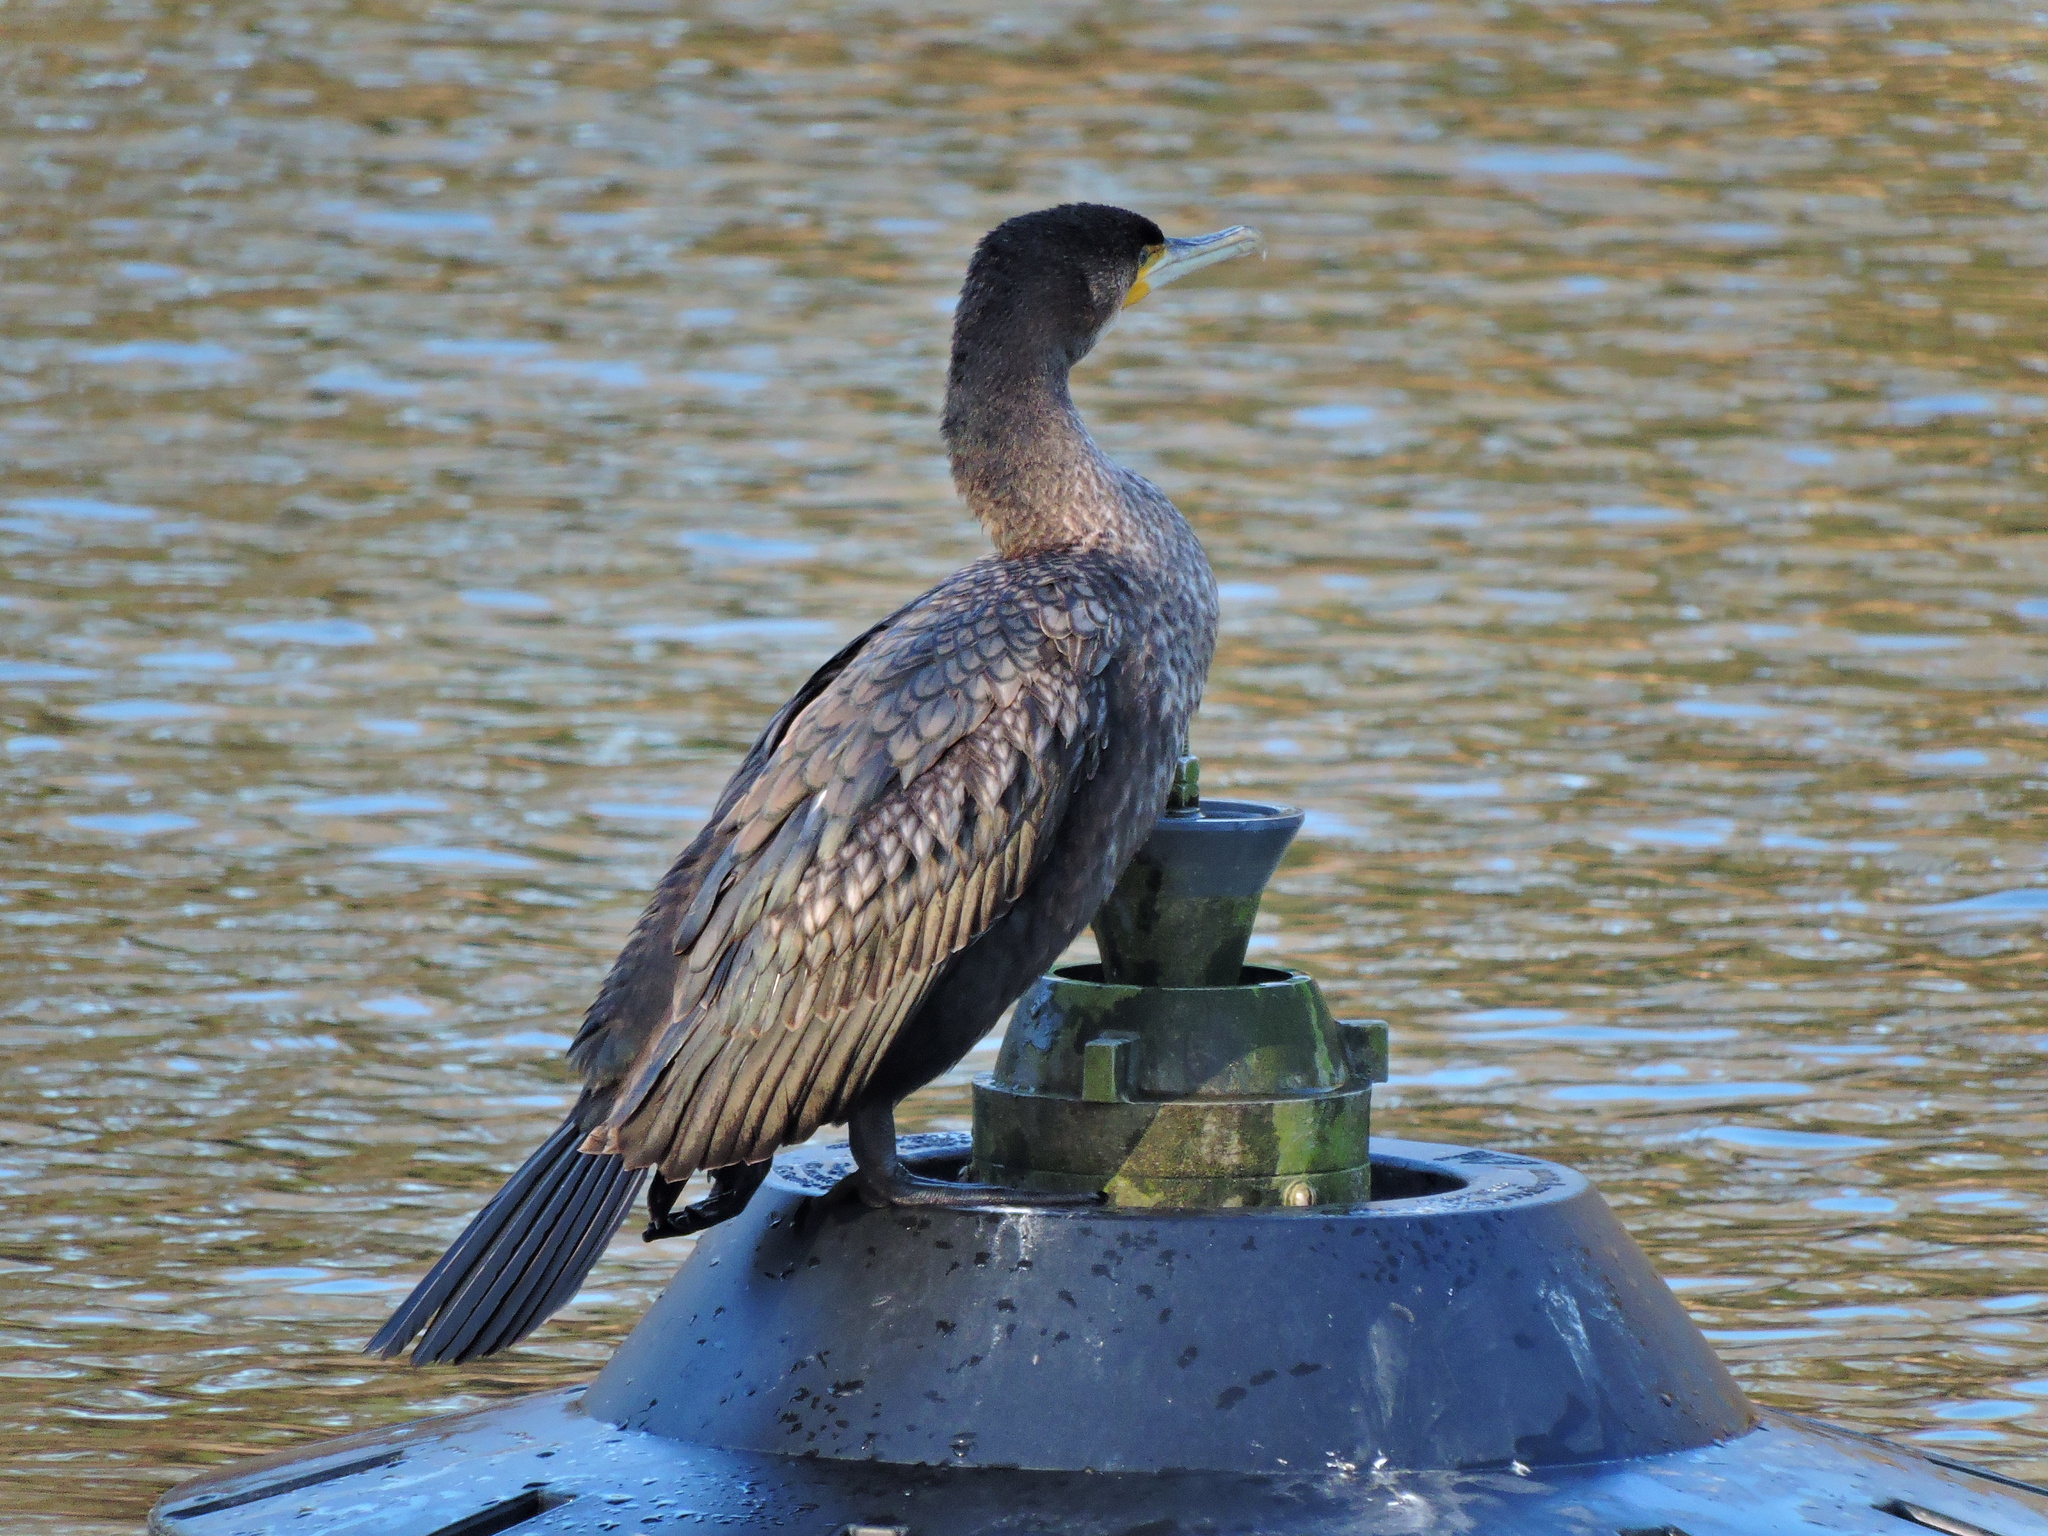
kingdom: Animalia
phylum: Chordata
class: Aves
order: Suliformes
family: Phalacrocoracidae
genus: Phalacrocorax
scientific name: Phalacrocorax carbo
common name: Great cormorant
